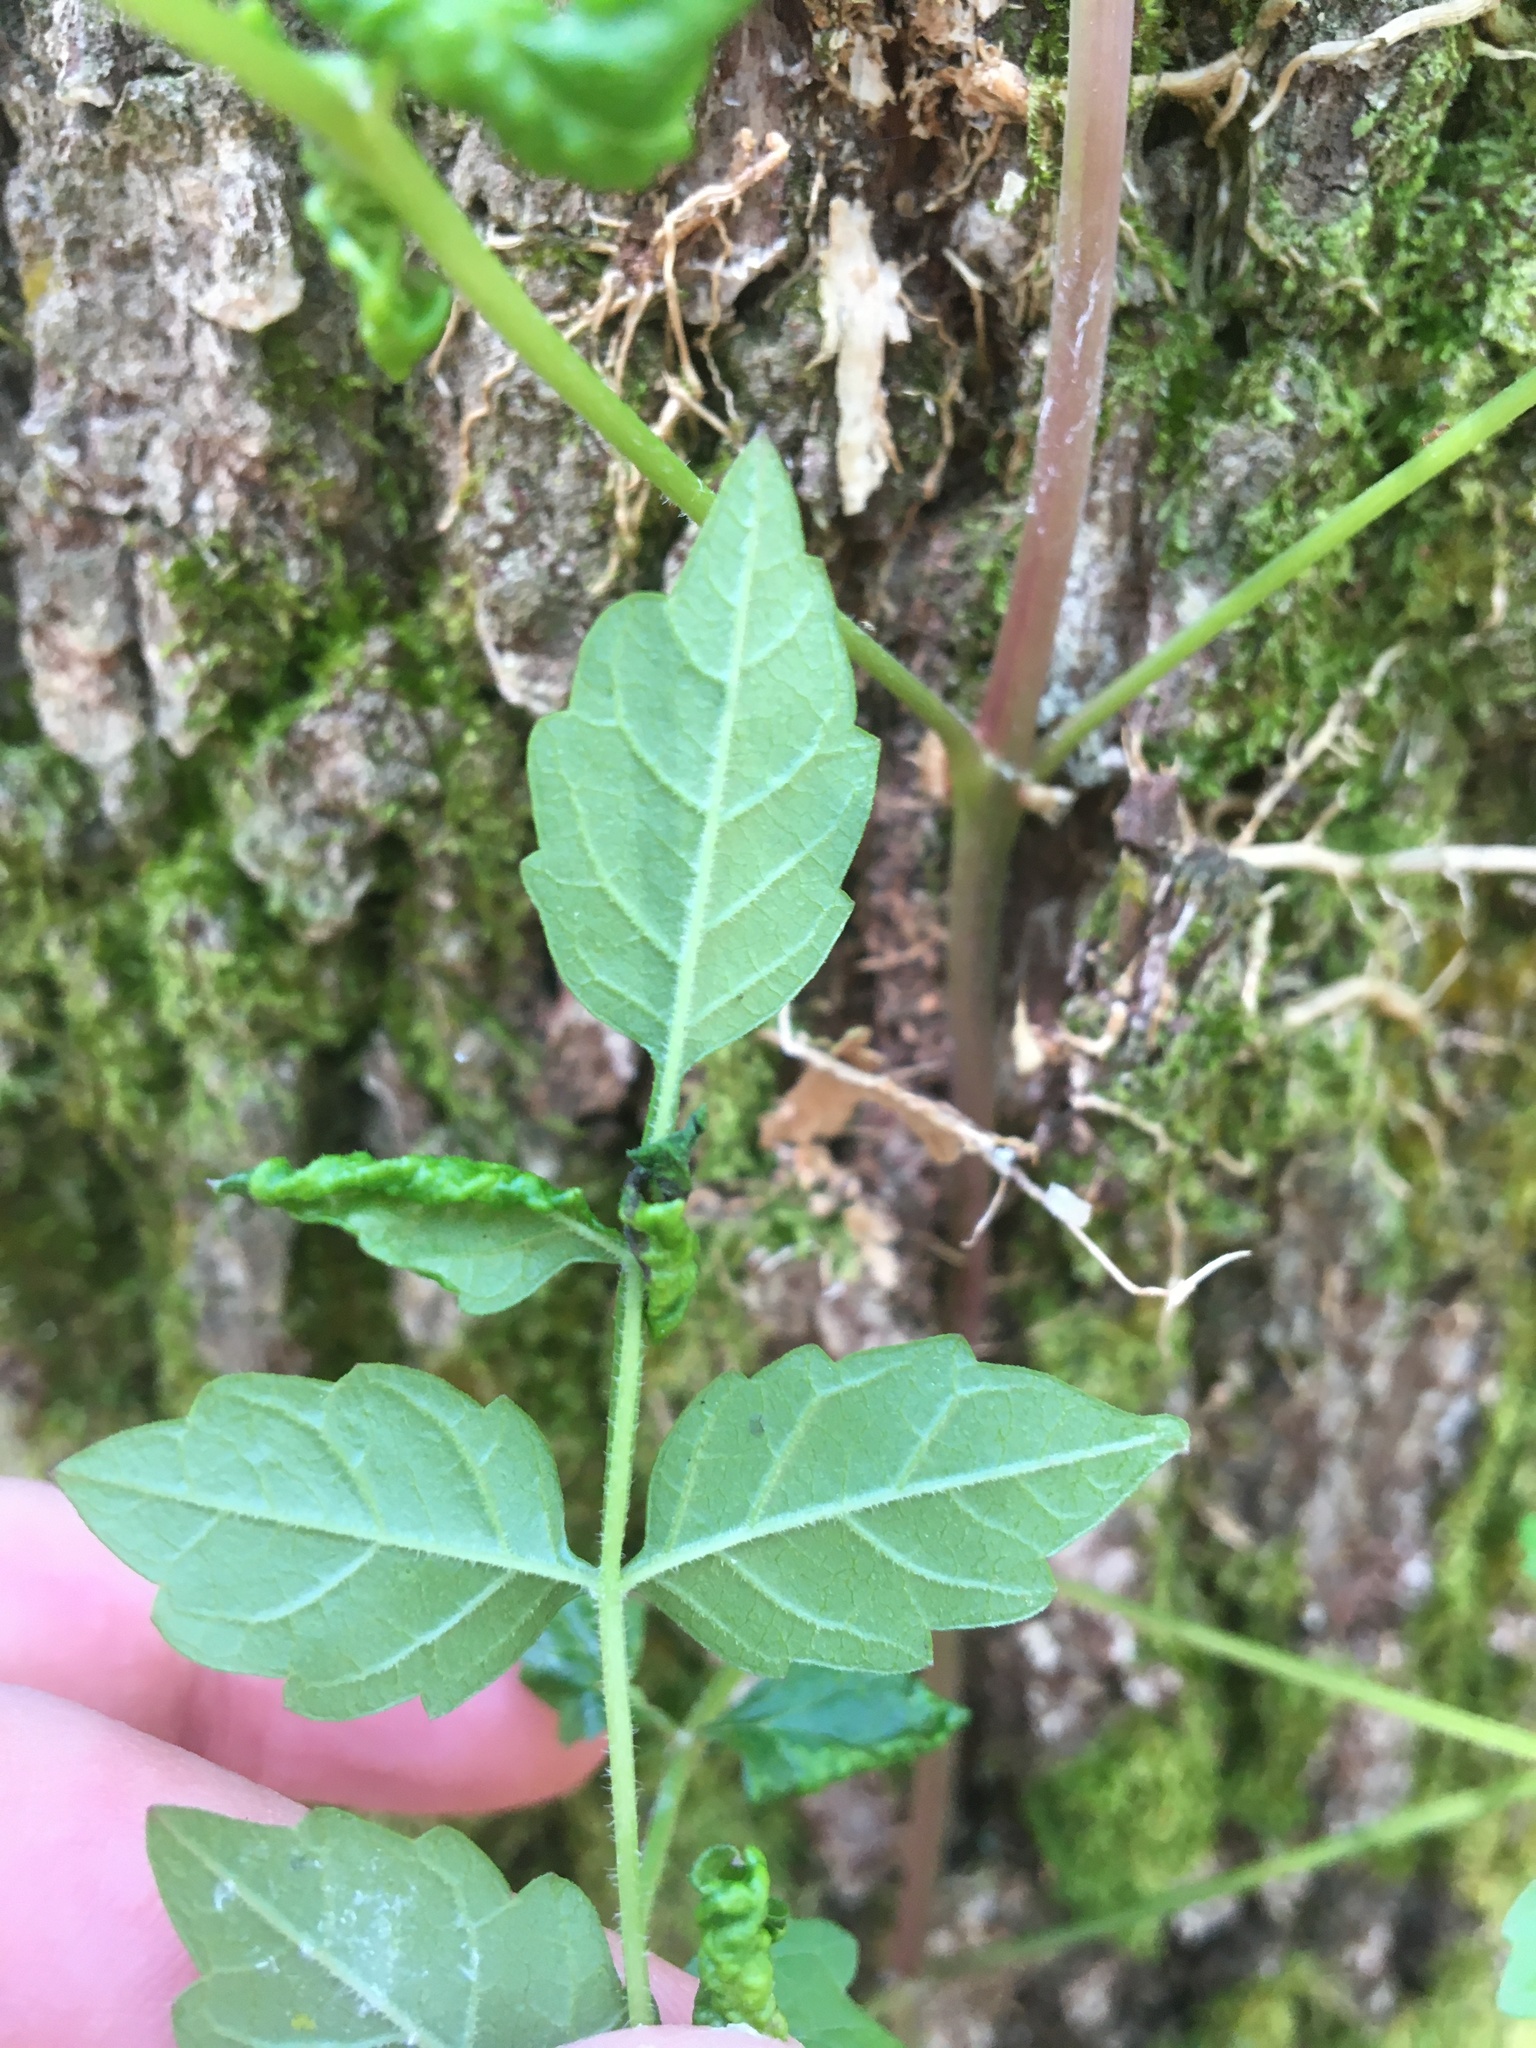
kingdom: Plantae
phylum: Tracheophyta
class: Magnoliopsida
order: Lamiales
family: Bignoniaceae
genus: Campsis
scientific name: Campsis radicans
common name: Trumpet-creeper
